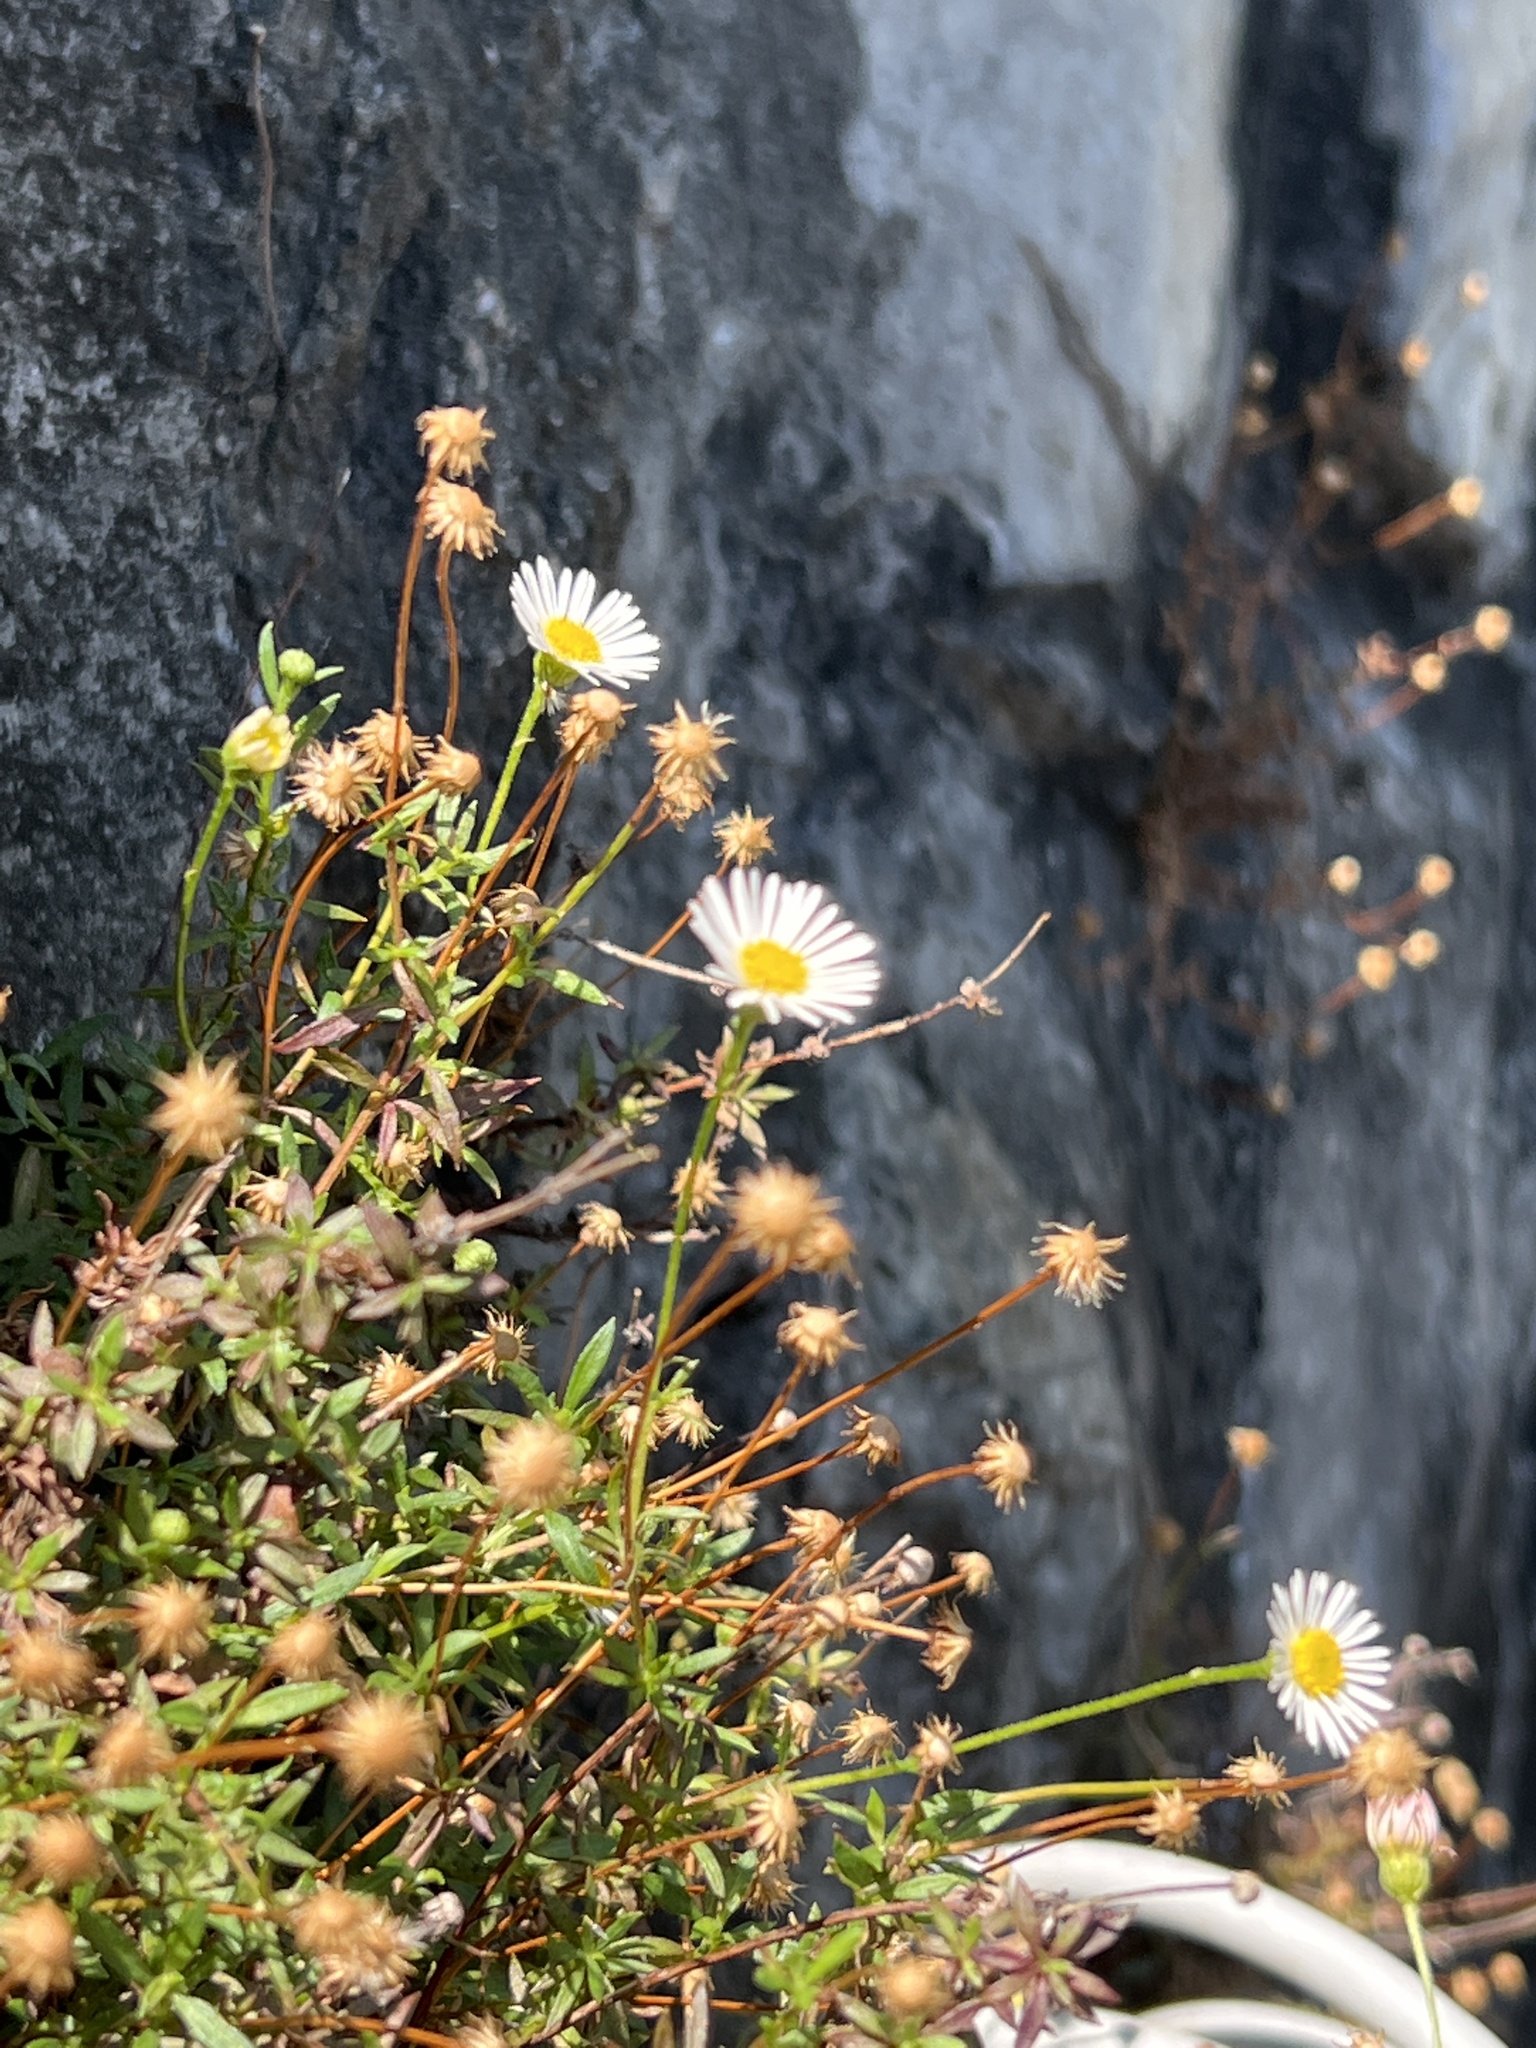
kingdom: Plantae
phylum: Tracheophyta
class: Magnoliopsida
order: Asterales
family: Asteraceae
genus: Erigeron
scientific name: Erigeron karvinskianus
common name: Mexican fleabane
